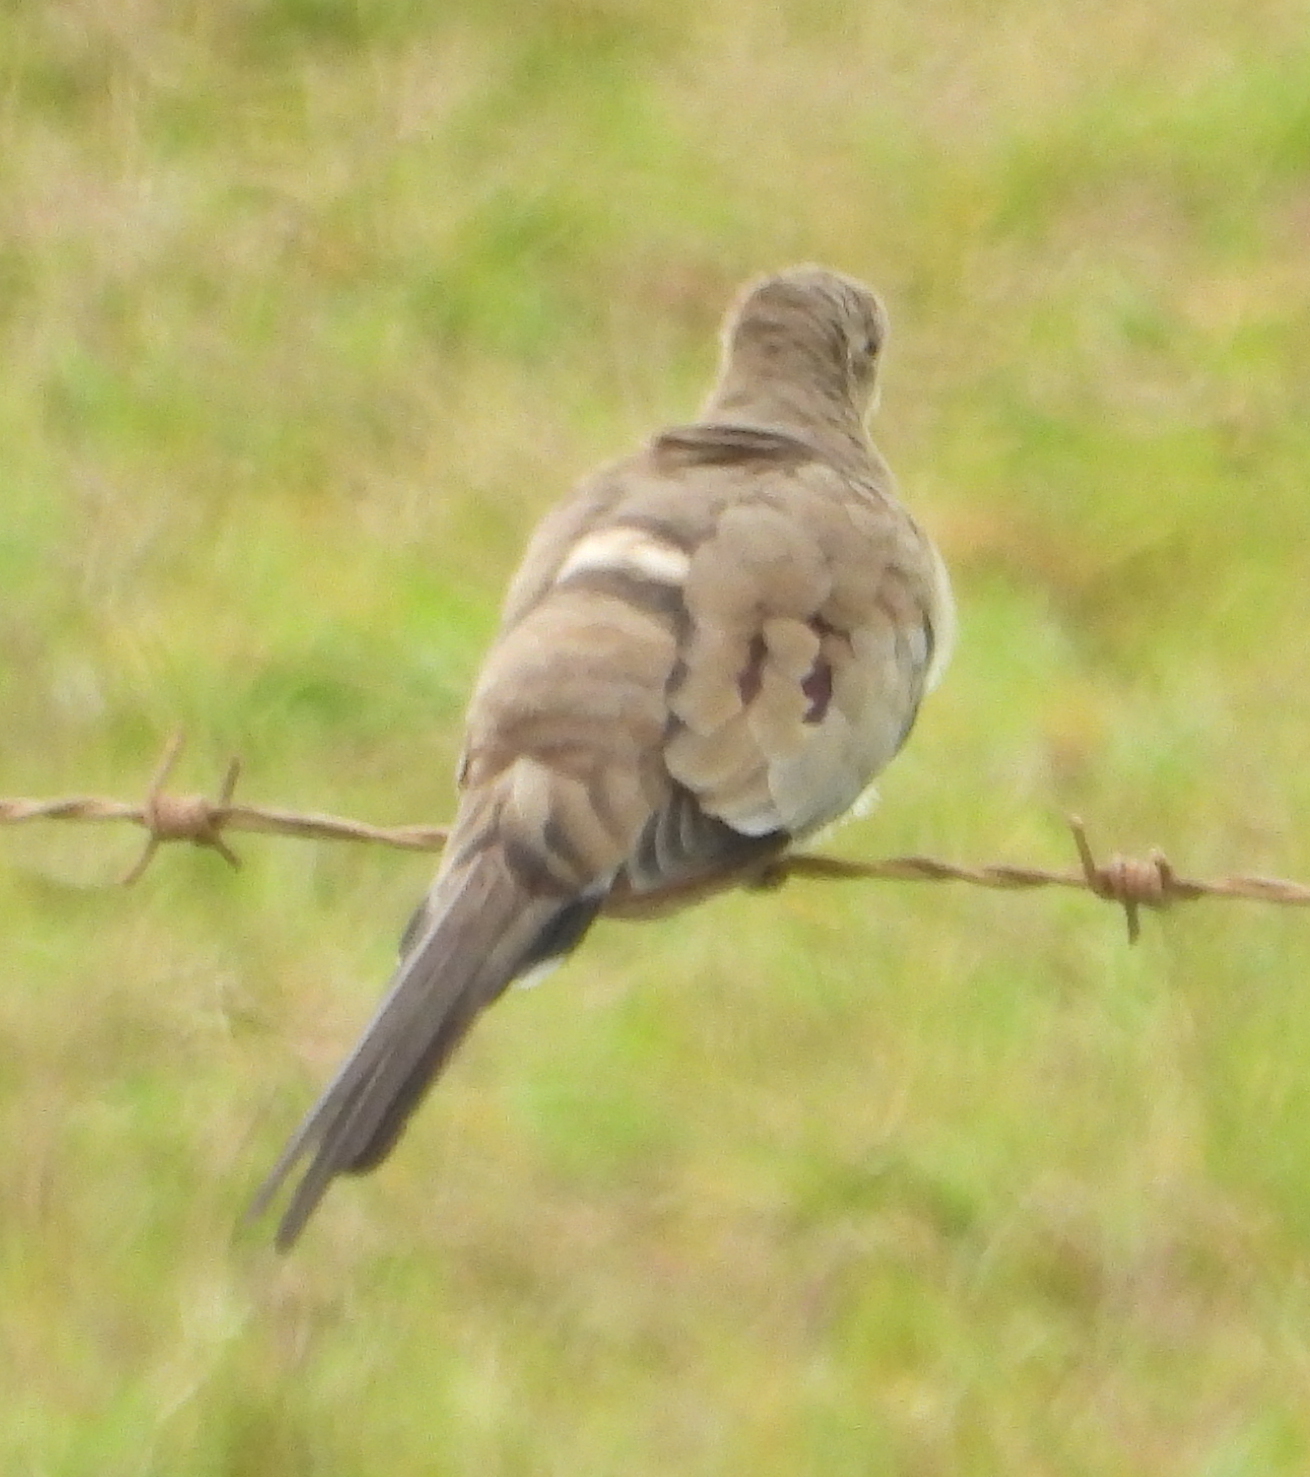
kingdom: Animalia
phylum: Chordata
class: Aves
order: Columbiformes
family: Columbidae
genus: Oena
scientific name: Oena capensis
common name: Namaqua dove
